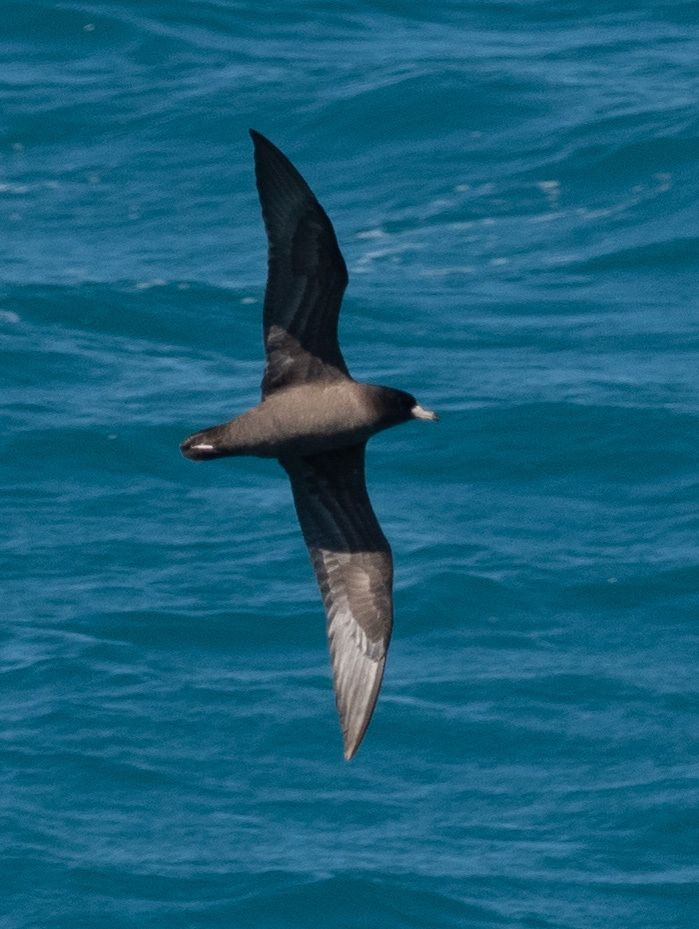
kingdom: Animalia
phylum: Chordata
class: Aves
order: Procellariiformes
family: Procellariidae
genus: Puffinus
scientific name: Puffinus carneipes
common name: Flesh-footed shearwater
